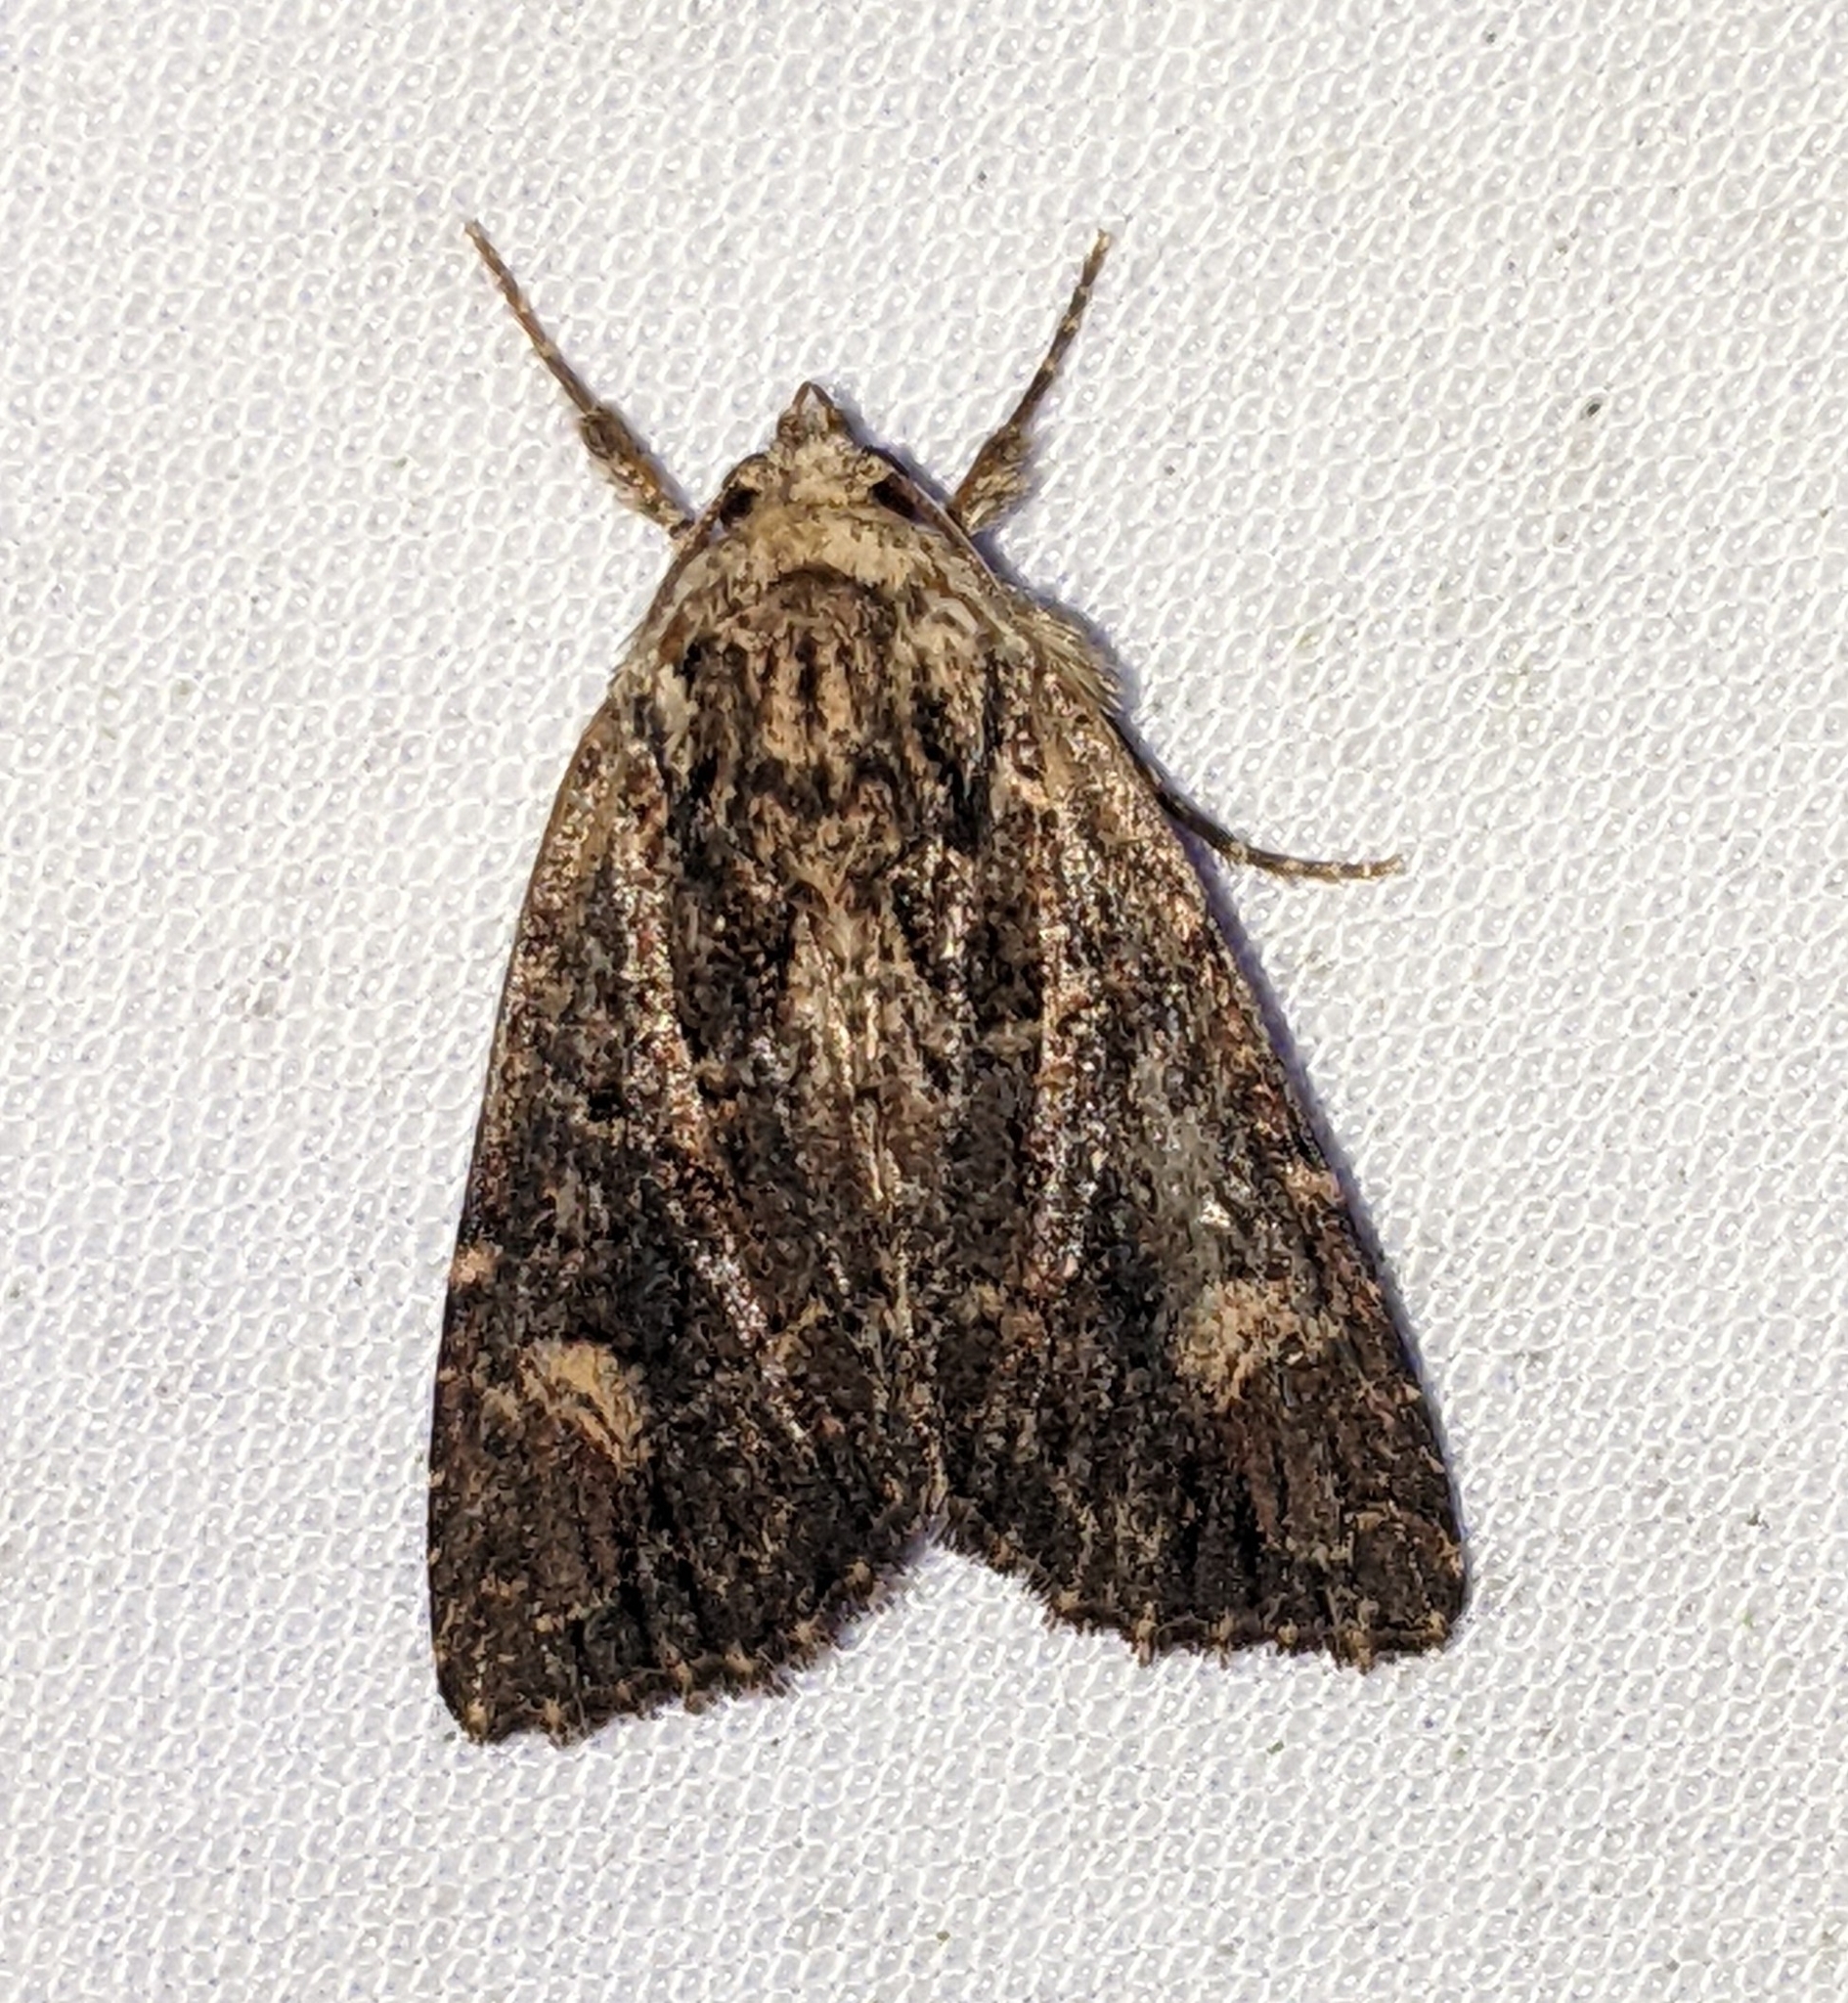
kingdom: Animalia
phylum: Arthropoda
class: Insecta
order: Lepidoptera
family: Noctuidae
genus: Aseptis
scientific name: Aseptis binotata
